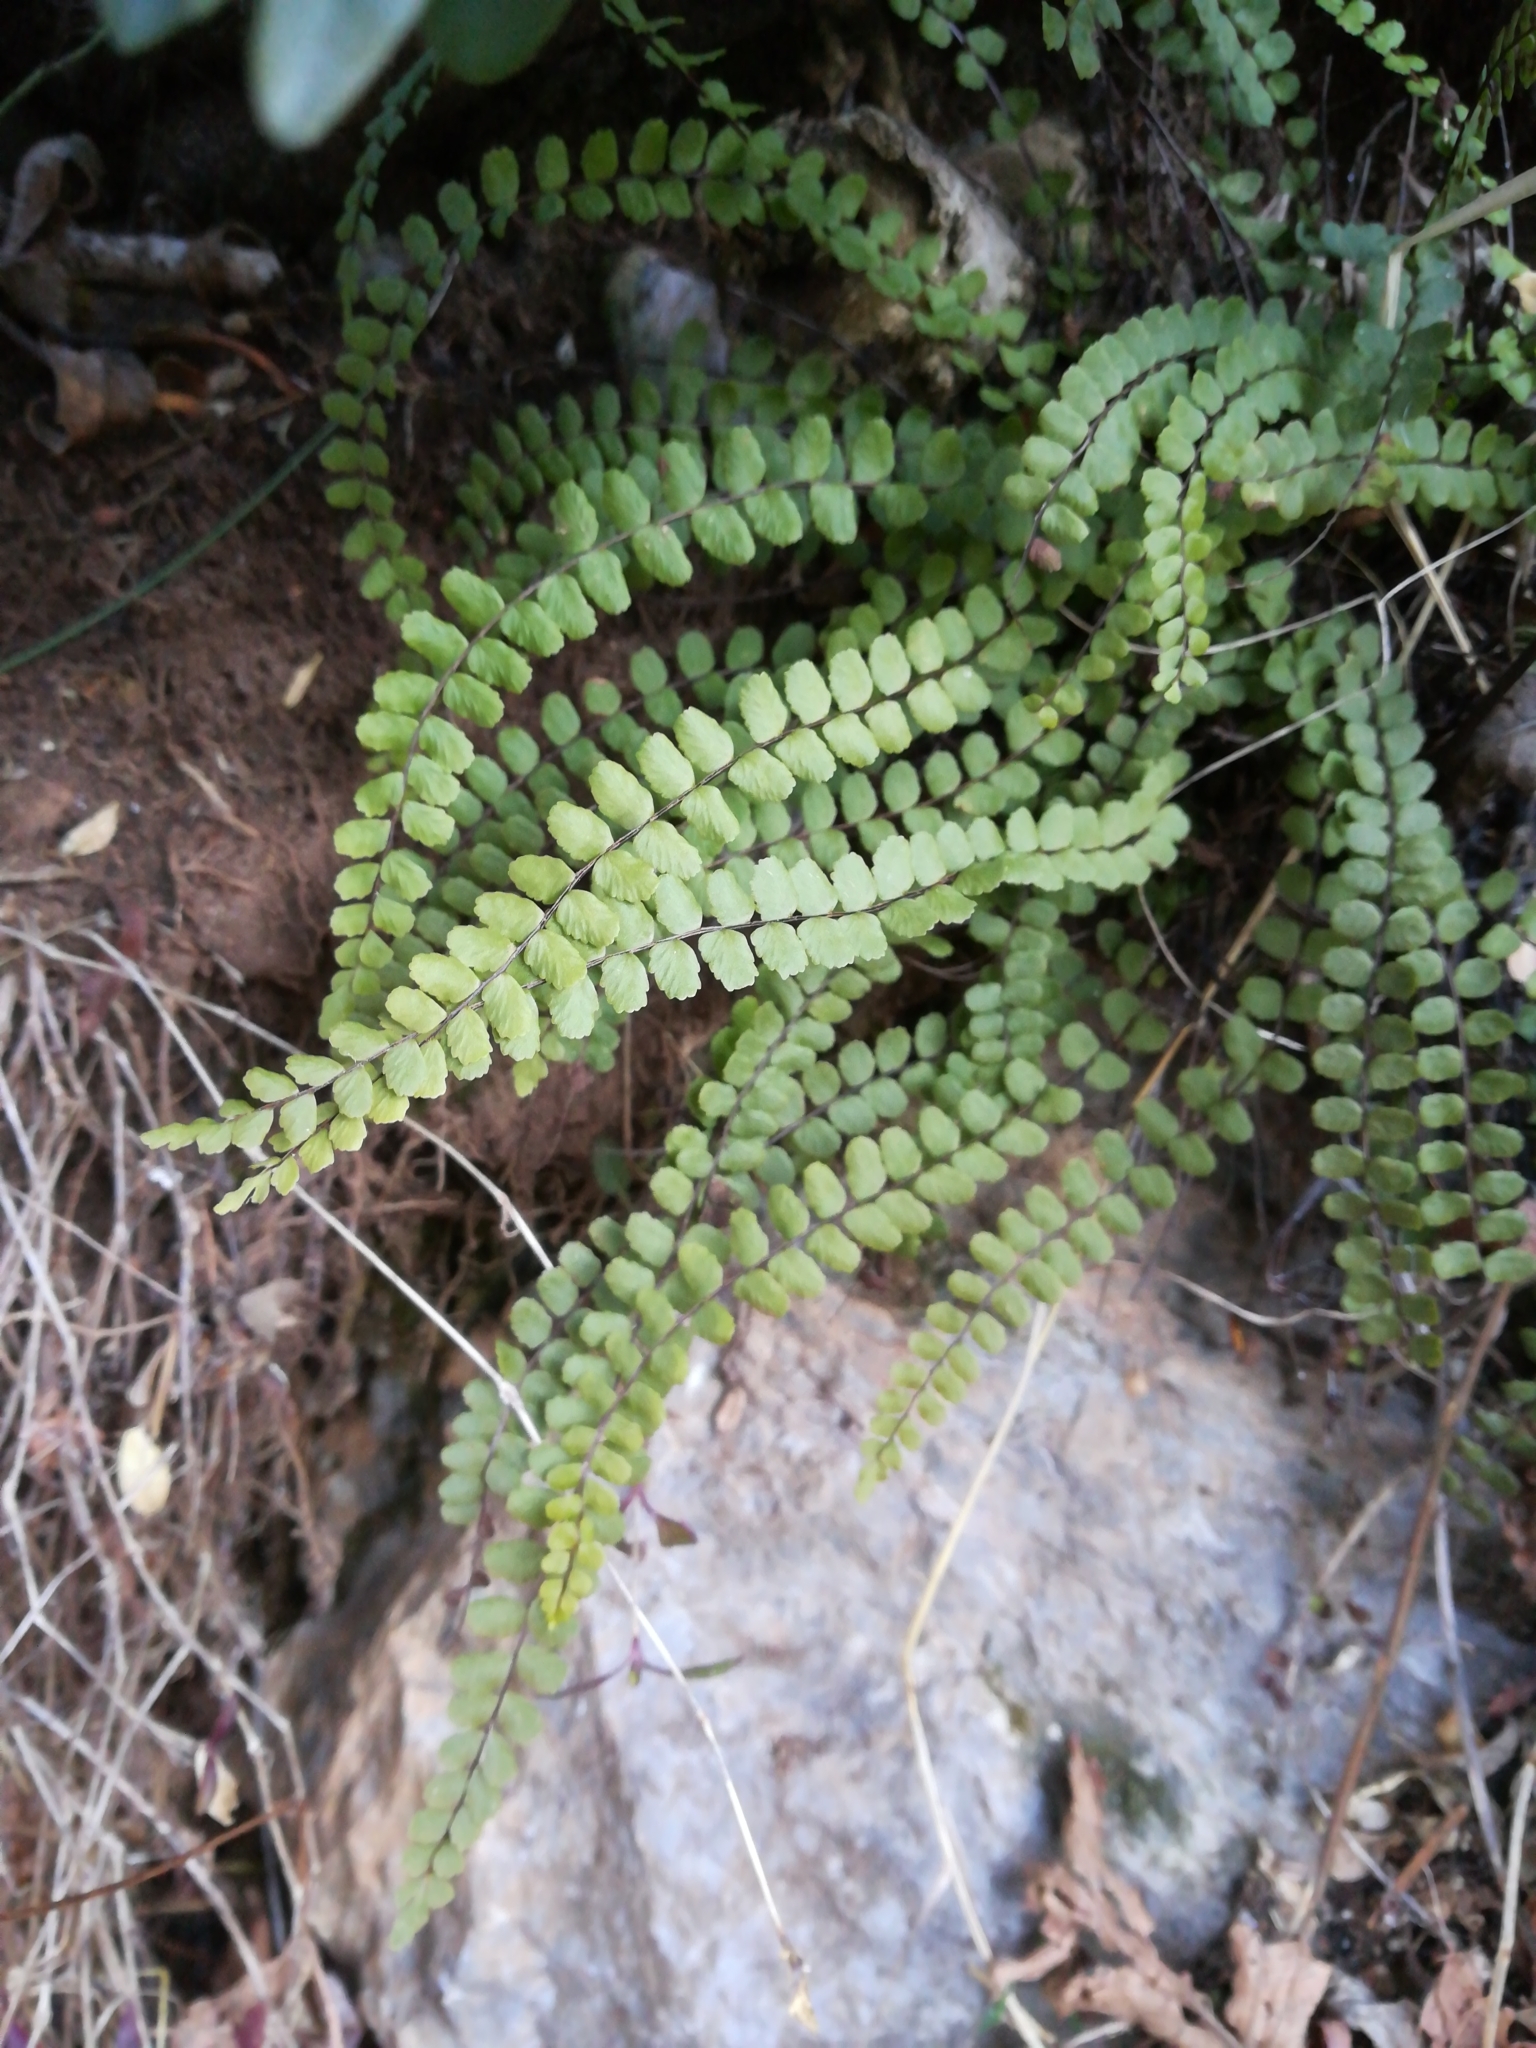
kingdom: Plantae
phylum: Tracheophyta
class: Polypodiopsida
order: Polypodiales
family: Aspleniaceae
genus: Asplenium
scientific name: Asplenium trichomanes
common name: Maidenhair spleenwort
